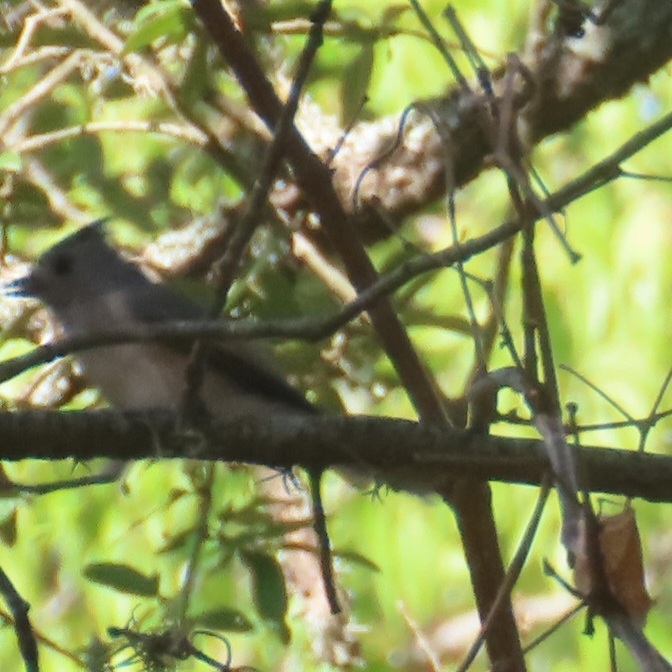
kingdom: Animalia
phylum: Chordata
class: Aves
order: Passeriformes
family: Paridae
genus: Baeolophus
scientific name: Baeolophus atricristatus
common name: Black-crested titmouse
